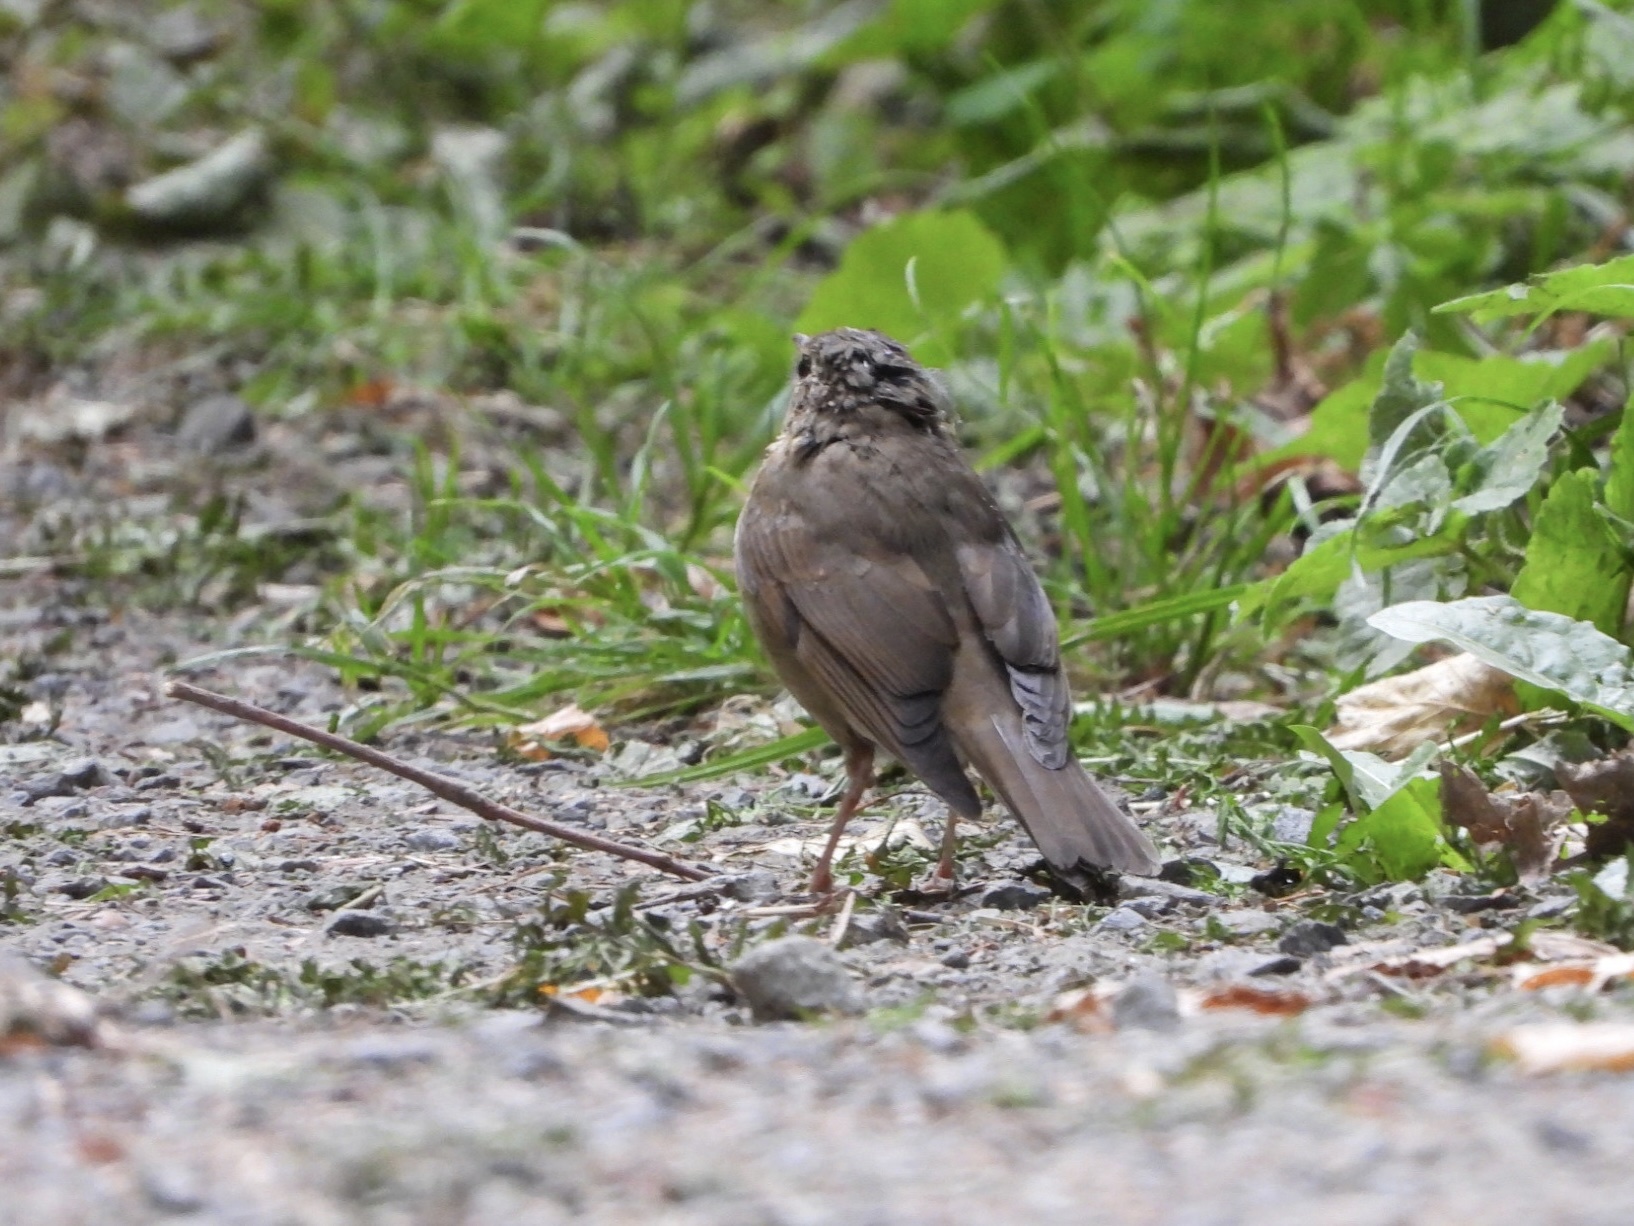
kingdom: Animalia
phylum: Chordata
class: Aves
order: Passeriformes
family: Turdidae
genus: Catharus
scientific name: Catharus ustulatus
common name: Swainson's thrush
